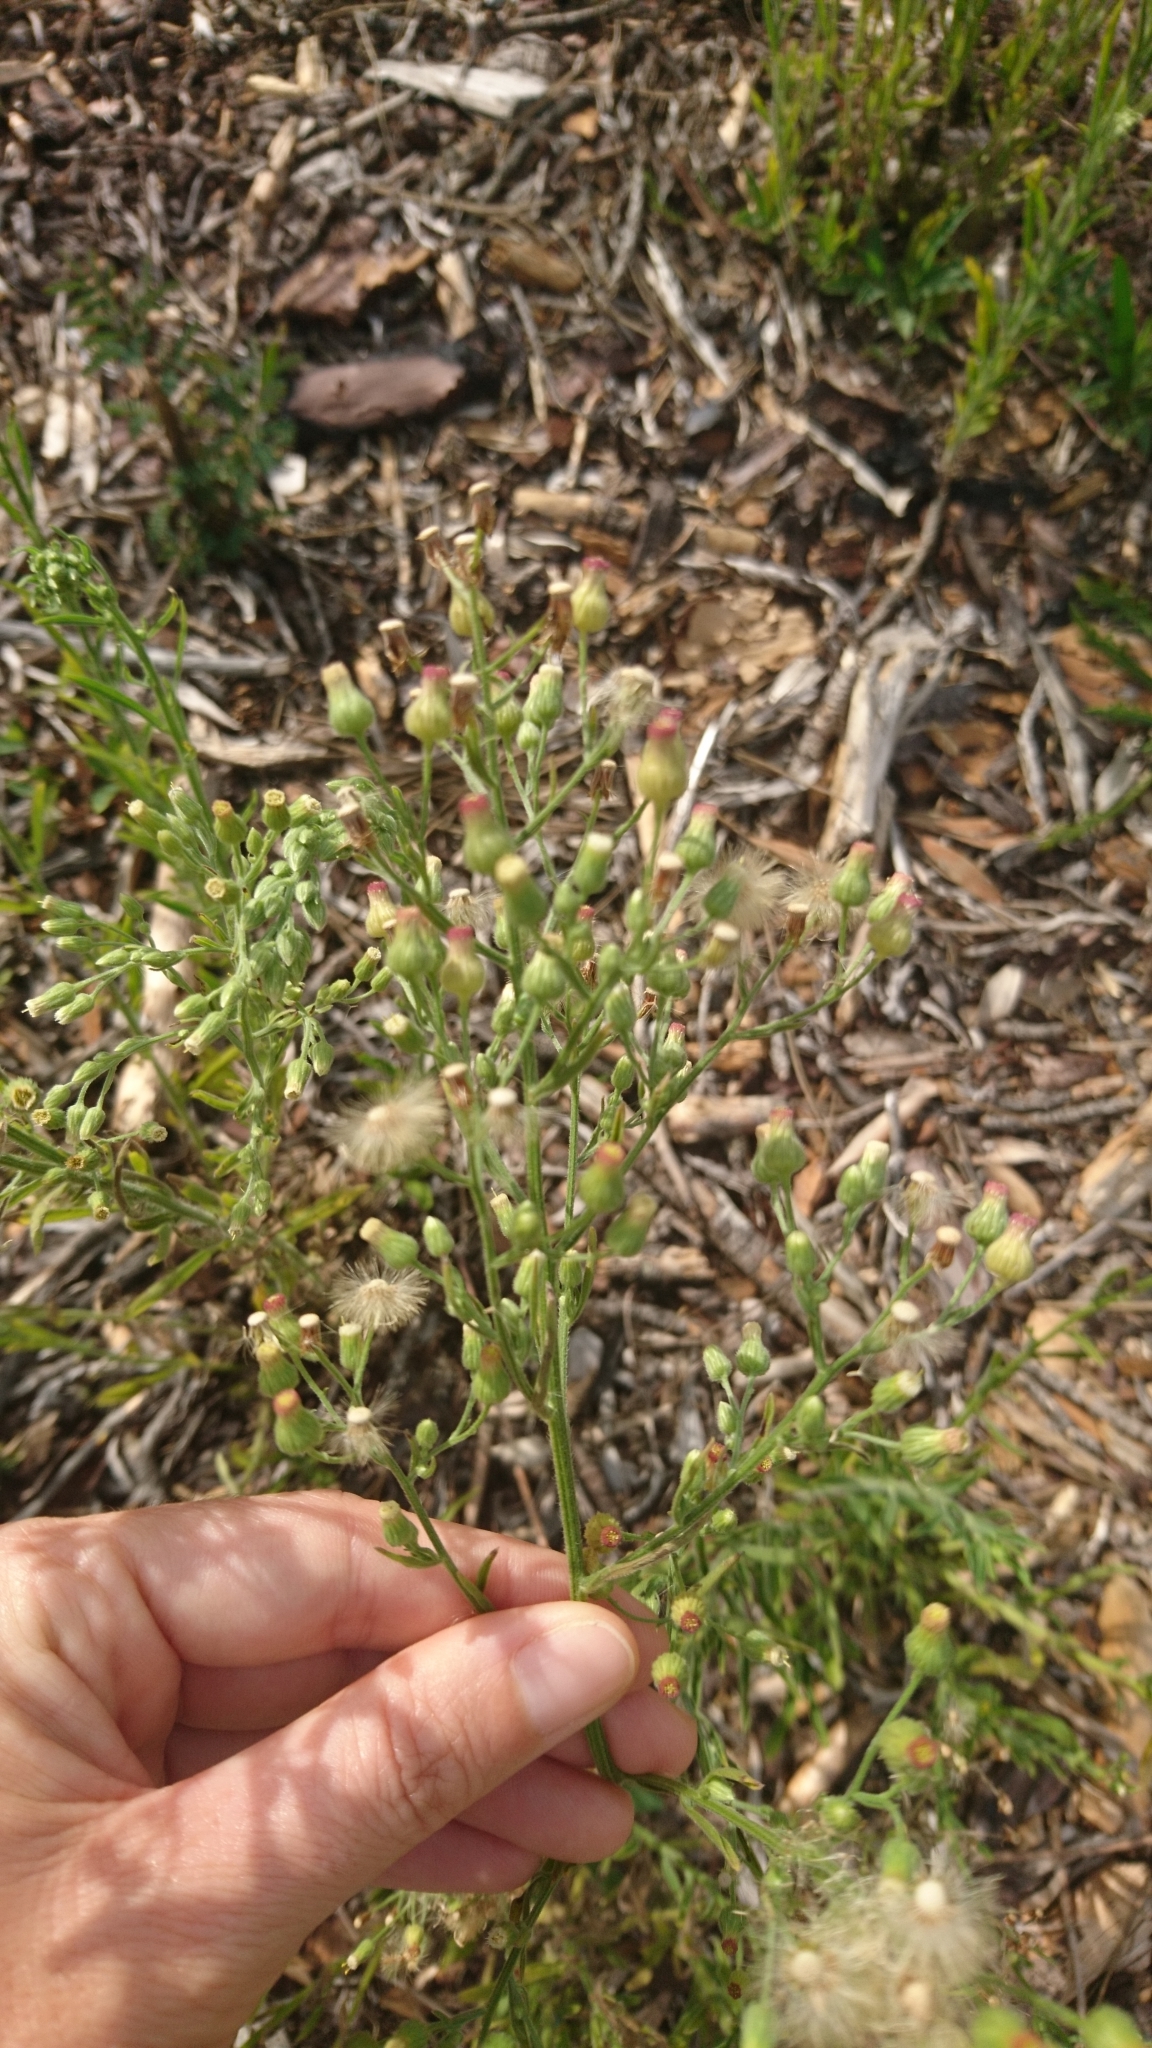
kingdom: Plantae
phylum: Tracheophyta
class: Magnoliopsida
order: Asterales
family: Asteraceae
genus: Erigeron
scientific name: Erigeron sumatrensis
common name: Daisy
